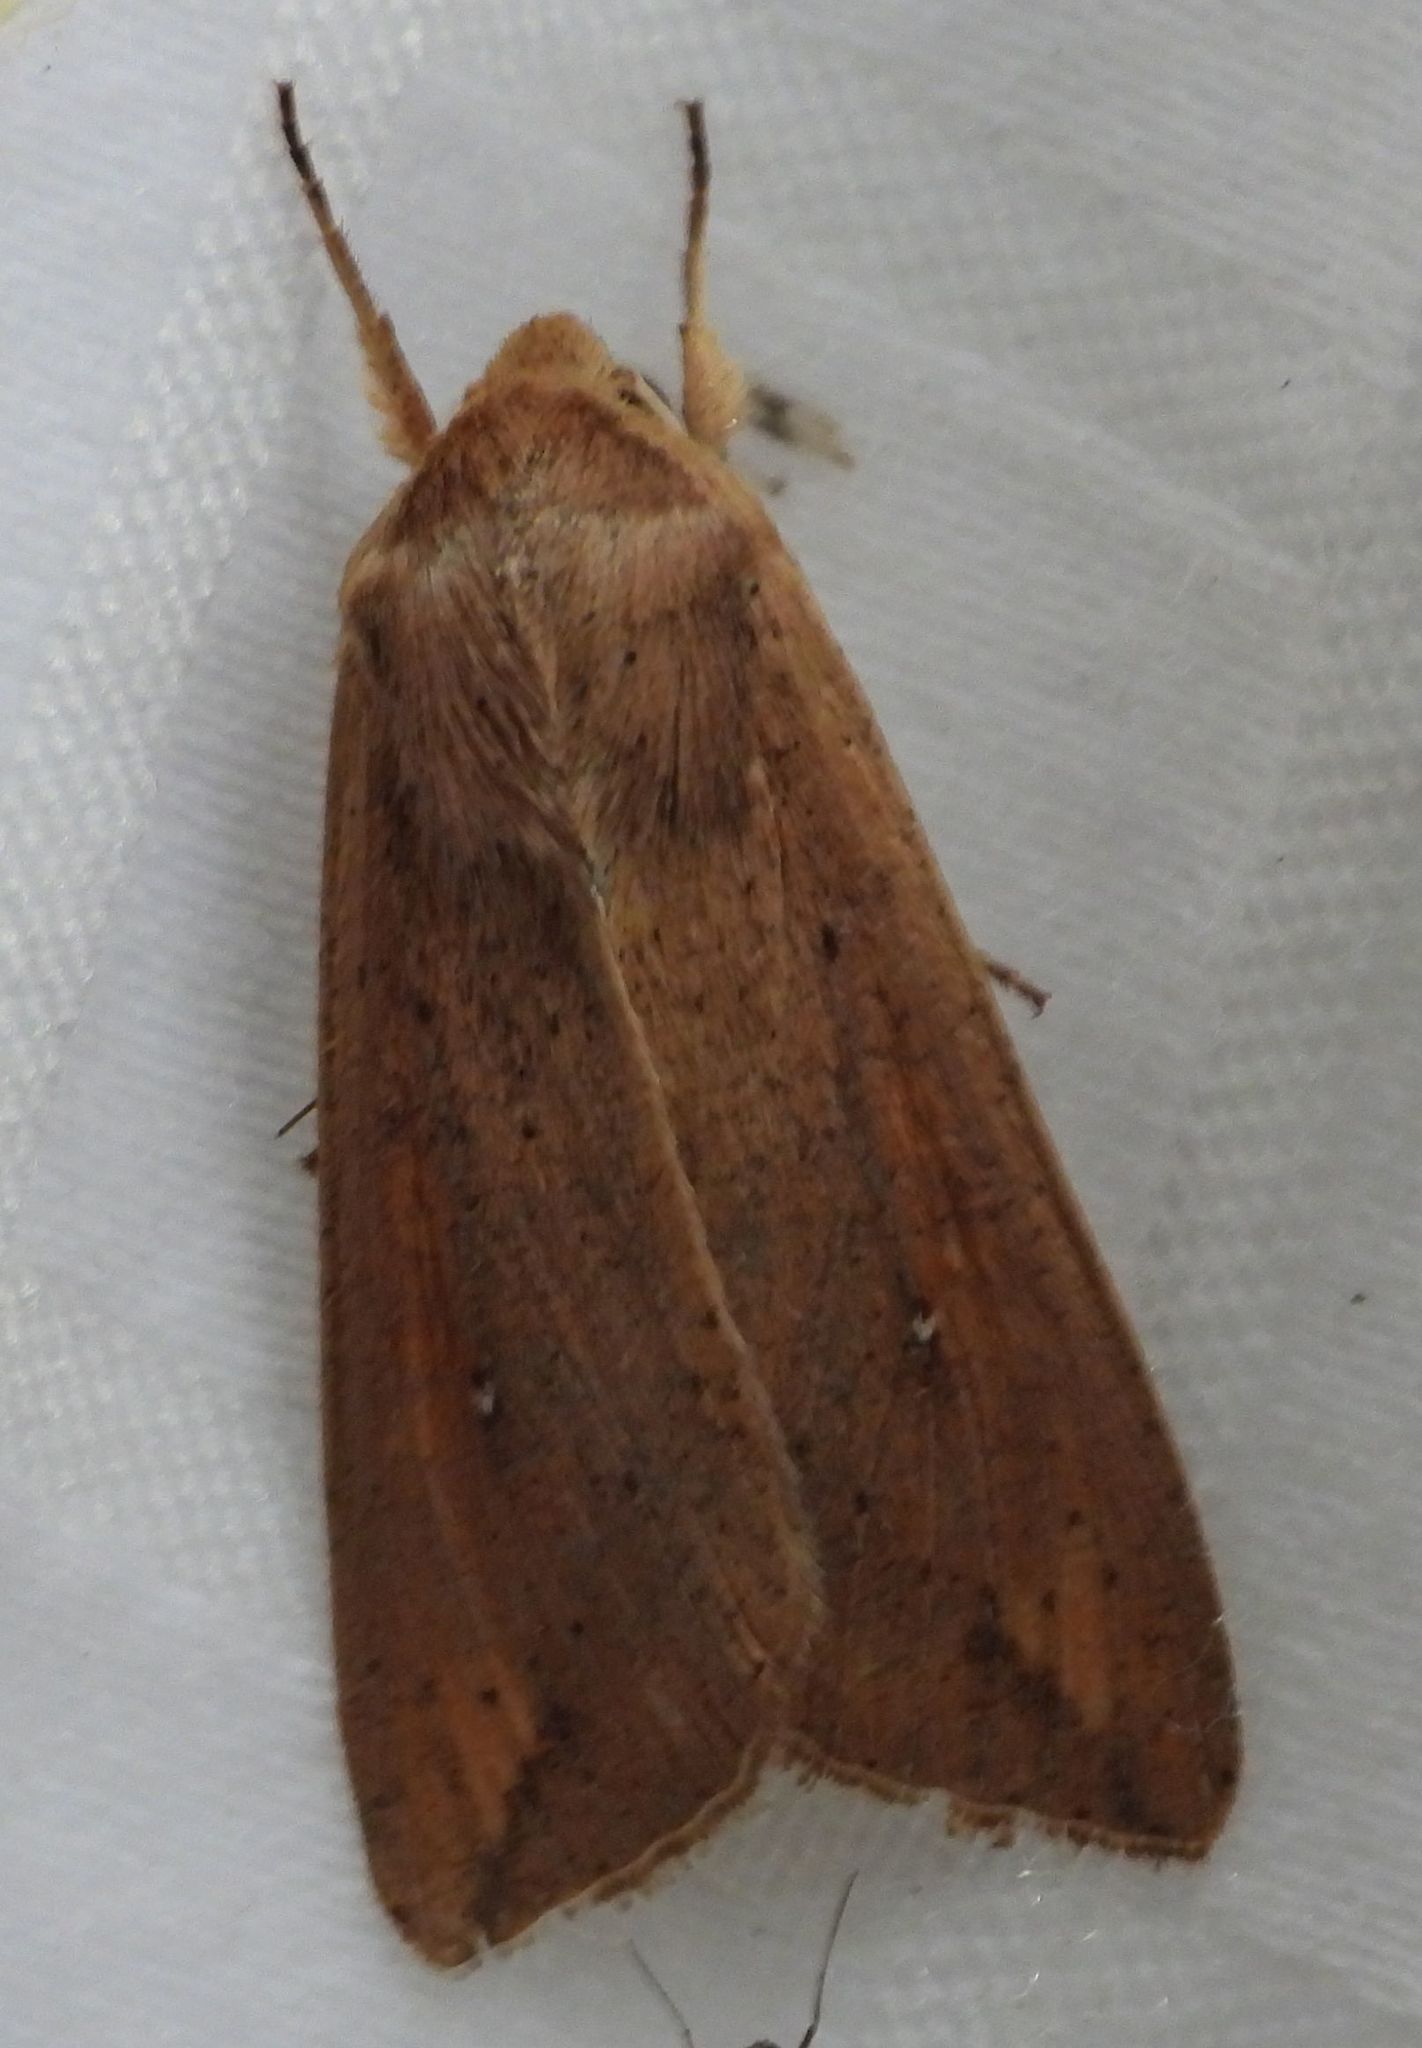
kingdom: Animalia
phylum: Arthropoda
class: Insecta
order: Lepidoptera
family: Noctuidae
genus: Mythimna
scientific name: Mythimna unipuncta
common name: White-speck
